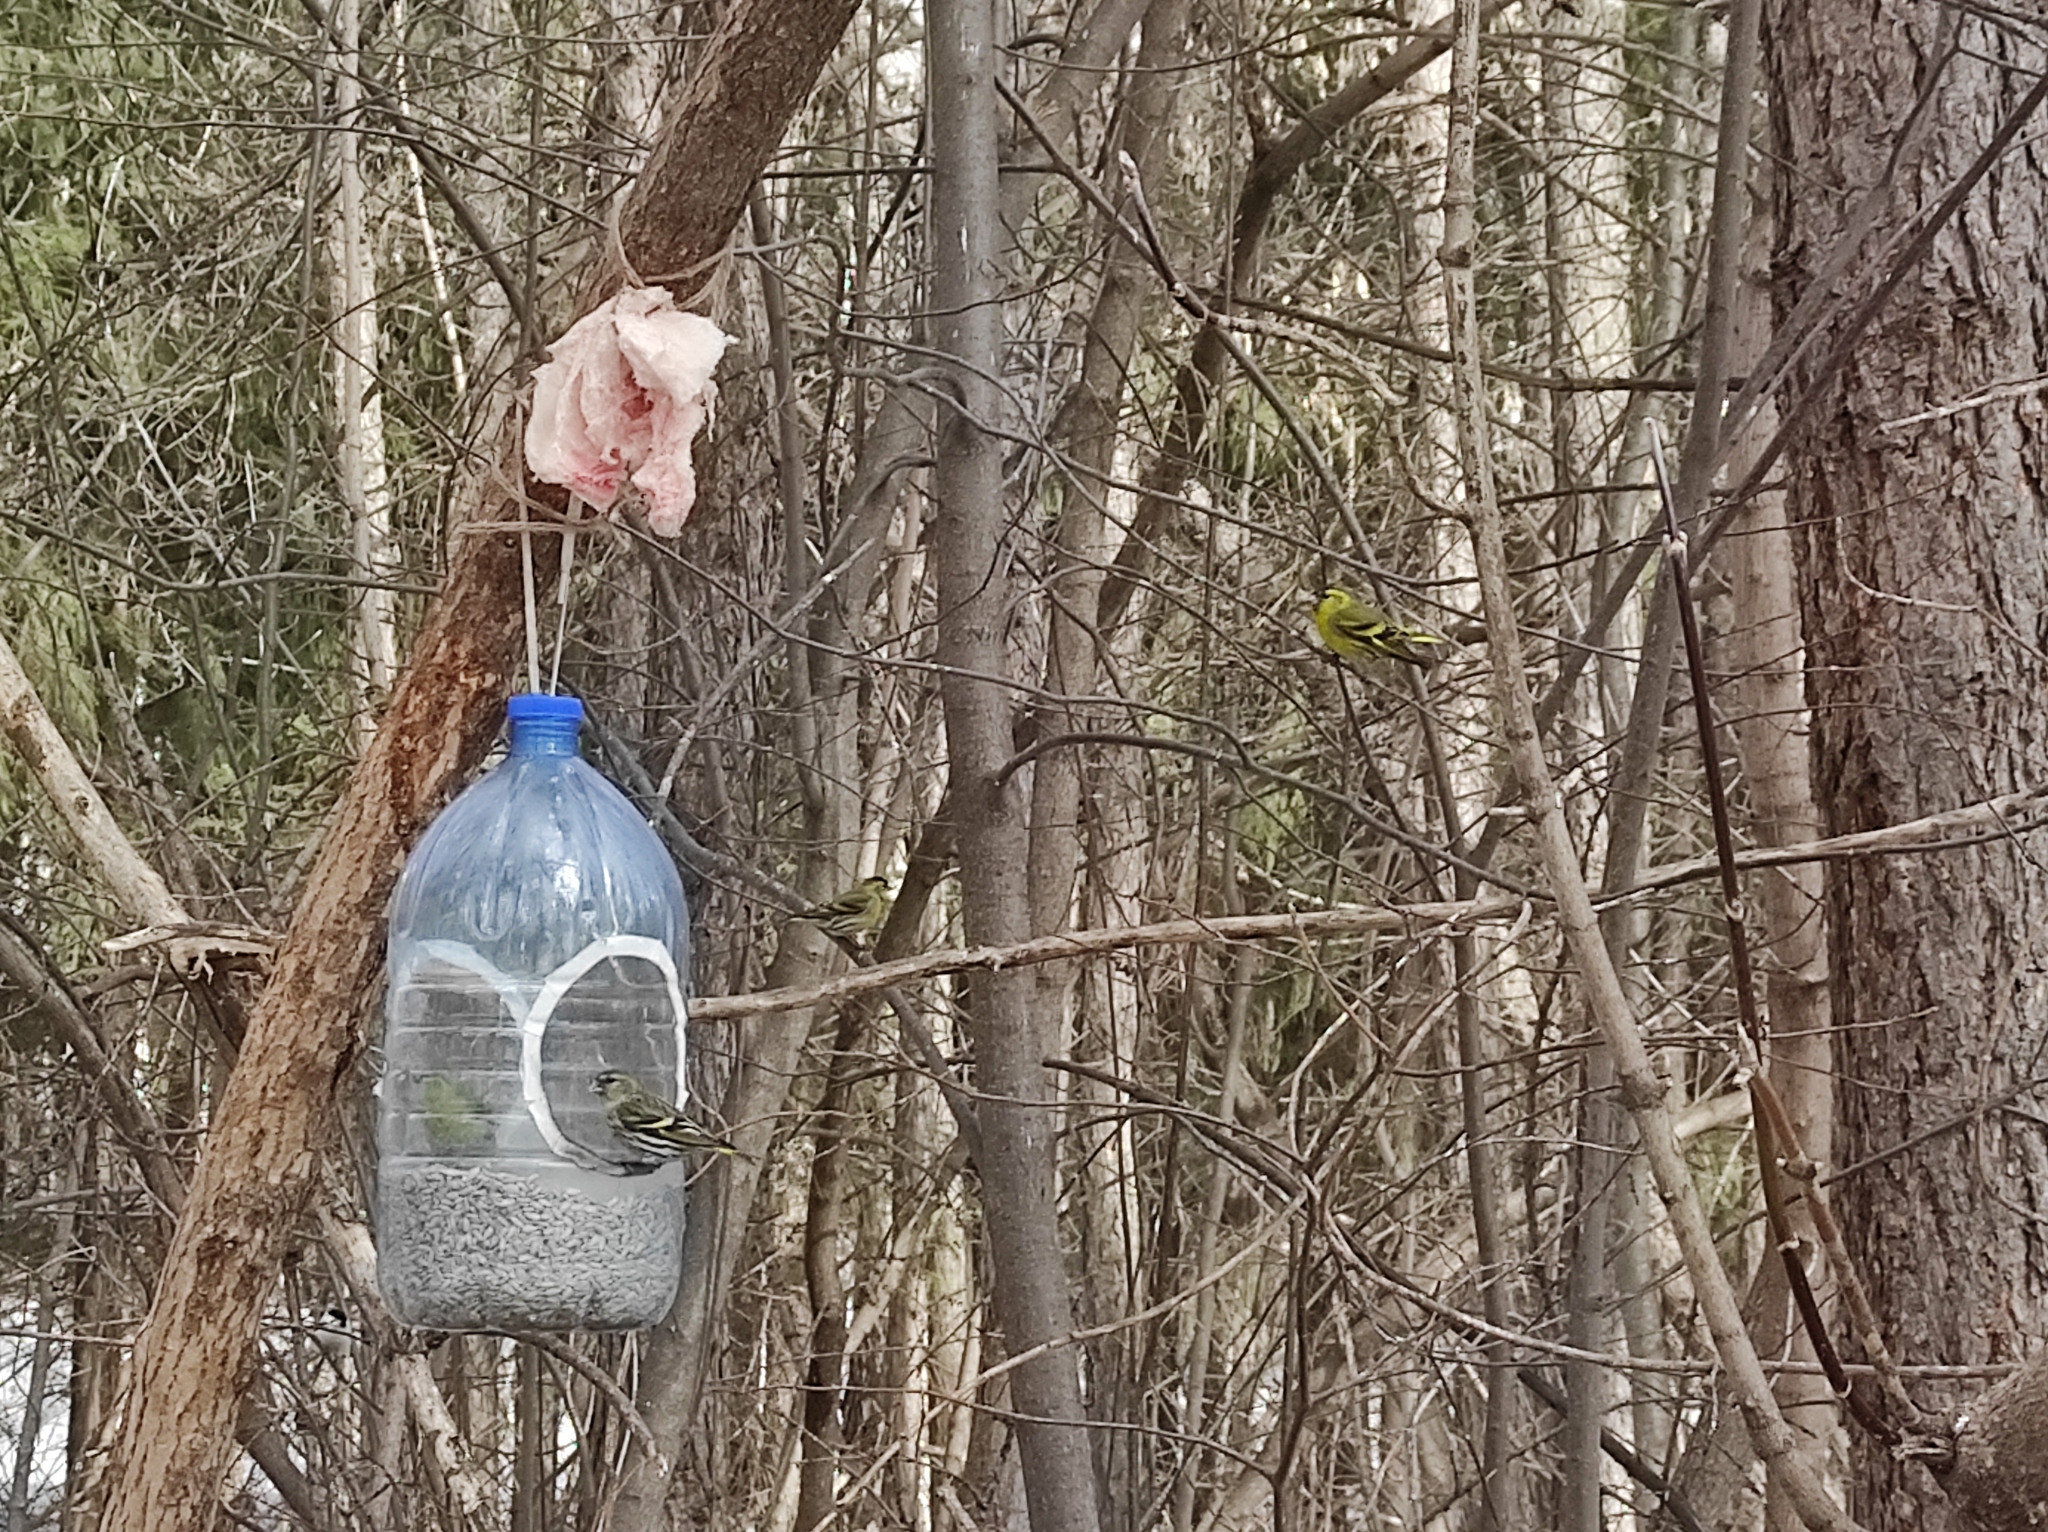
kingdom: Animalia
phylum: Chordata
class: Aves
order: Passeriformes
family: Fringillidae
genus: Spinus
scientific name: Spinus spinus
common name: Eurasian siskin
